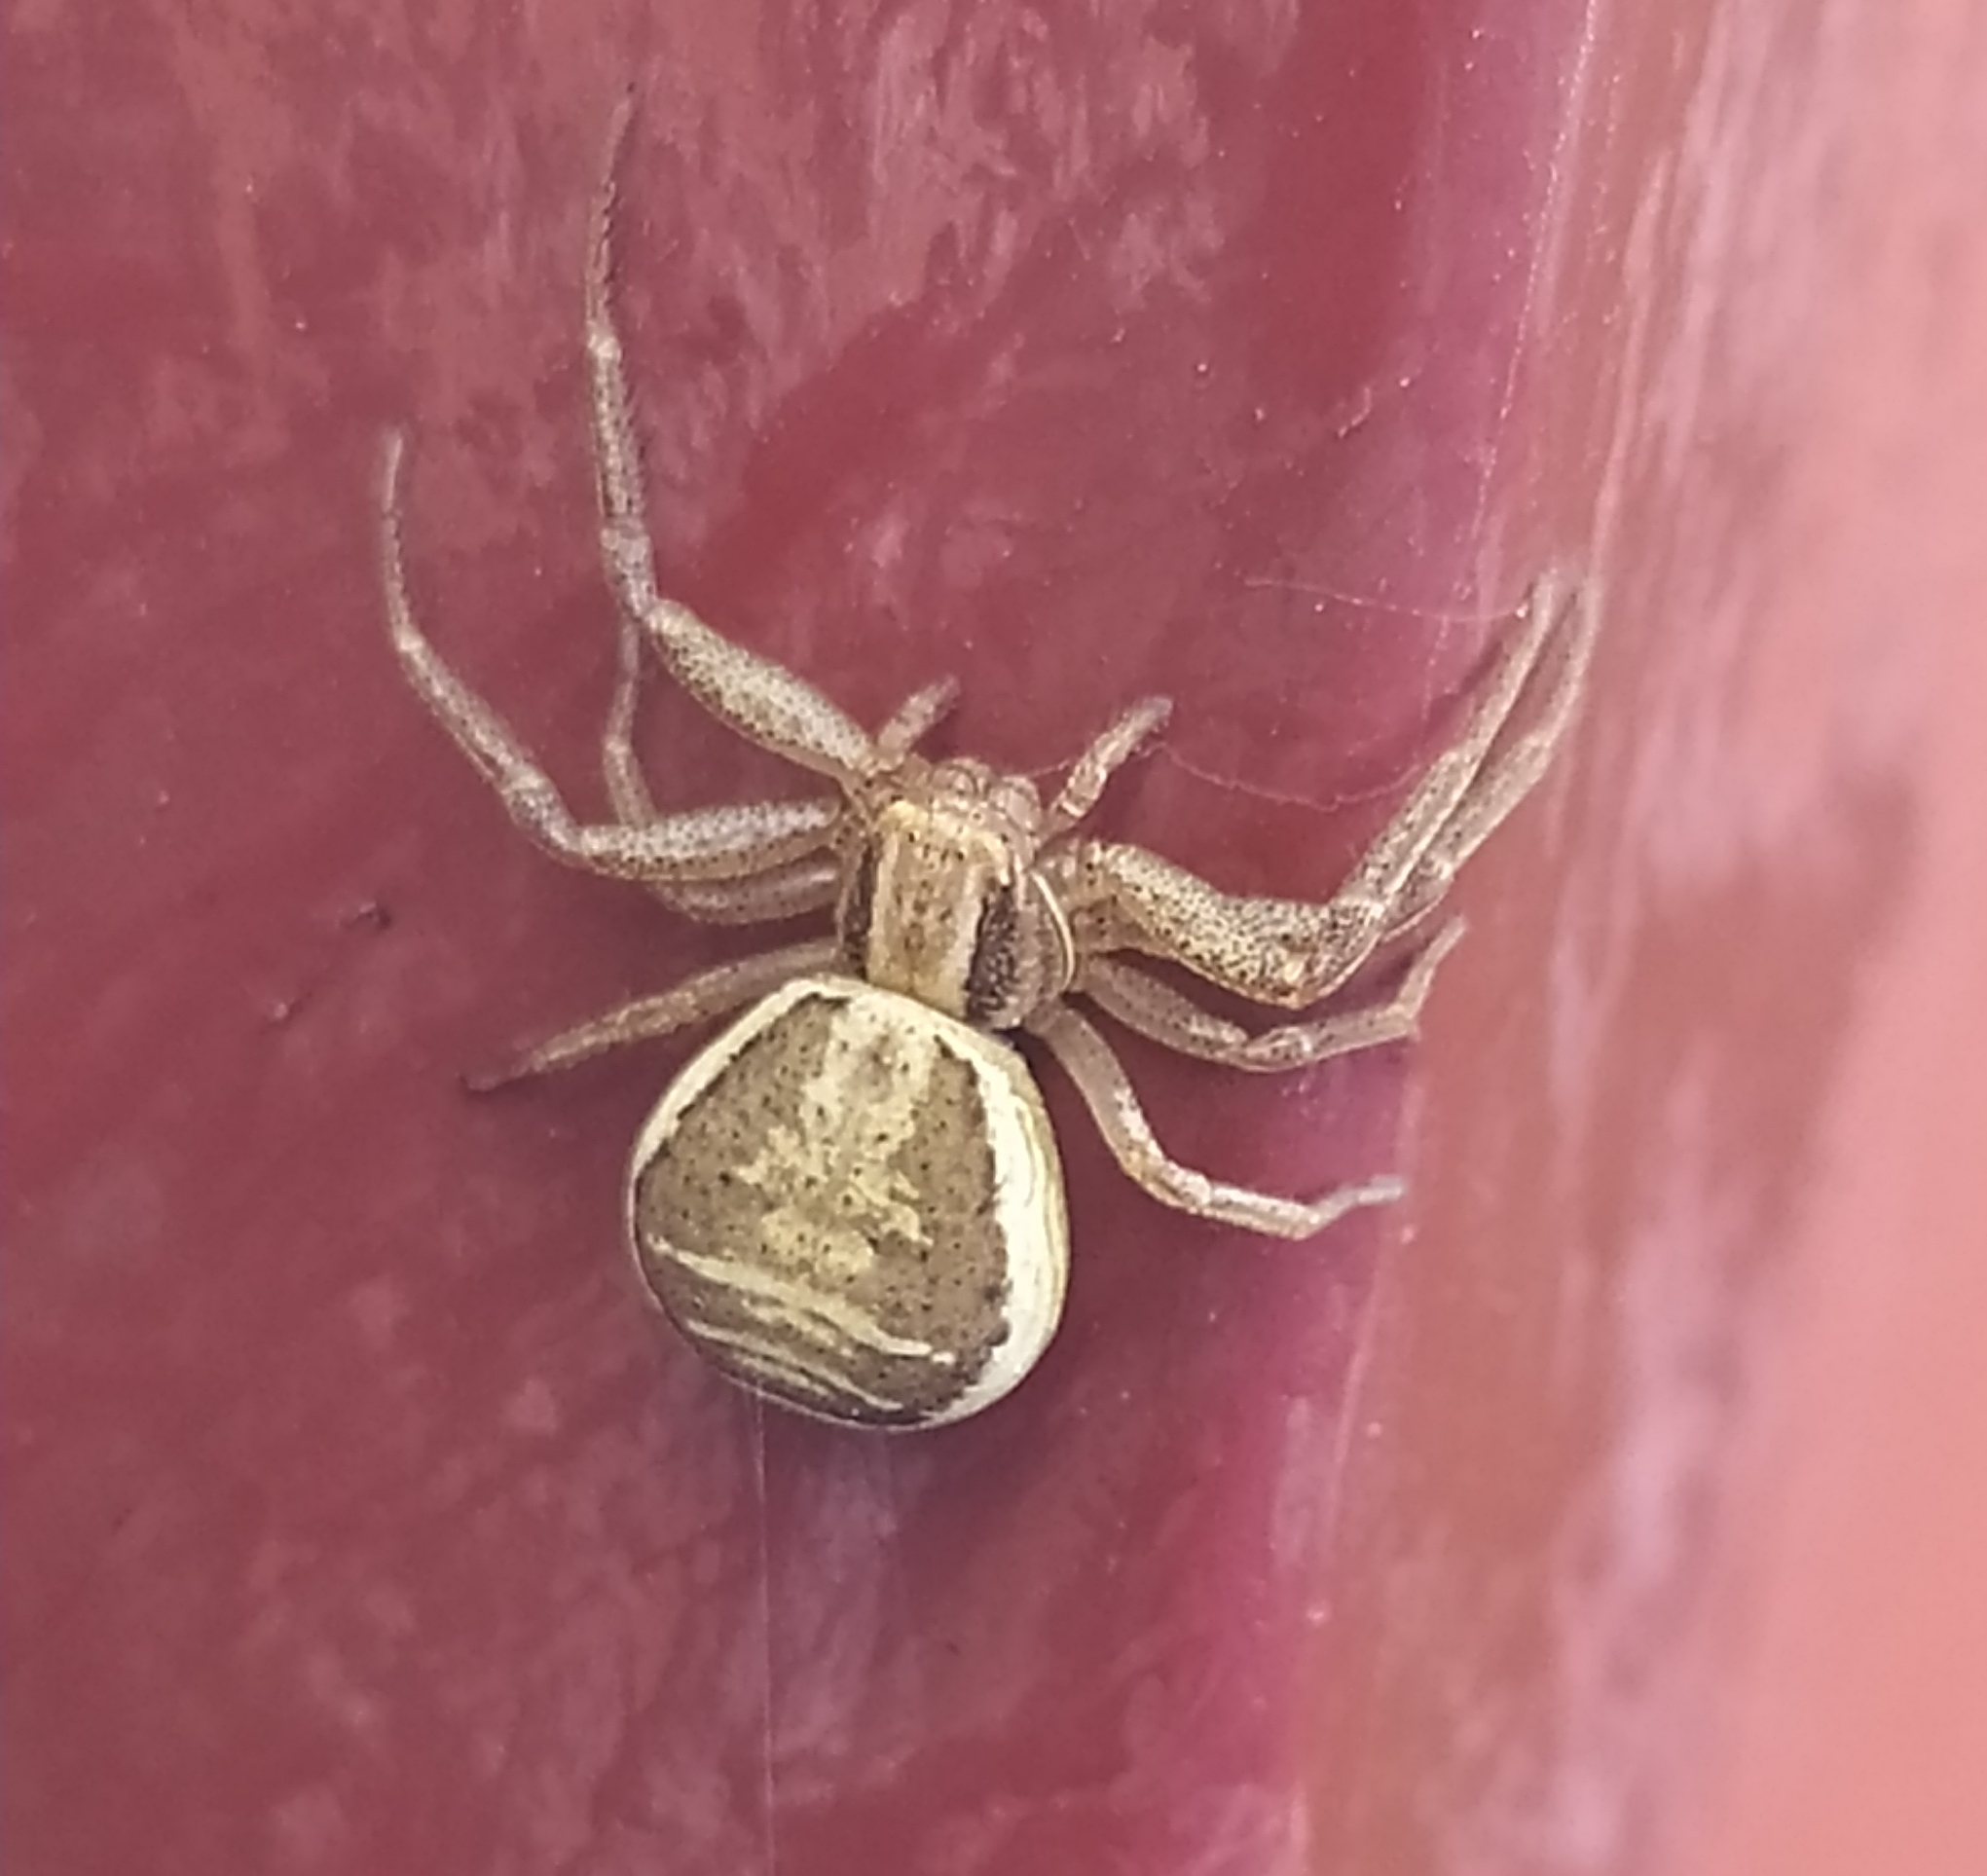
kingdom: Animalia
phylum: Arthropoda
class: Arachnida
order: Araneae
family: Thomisidae
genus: Xysticus
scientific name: Xysticus ulmi
